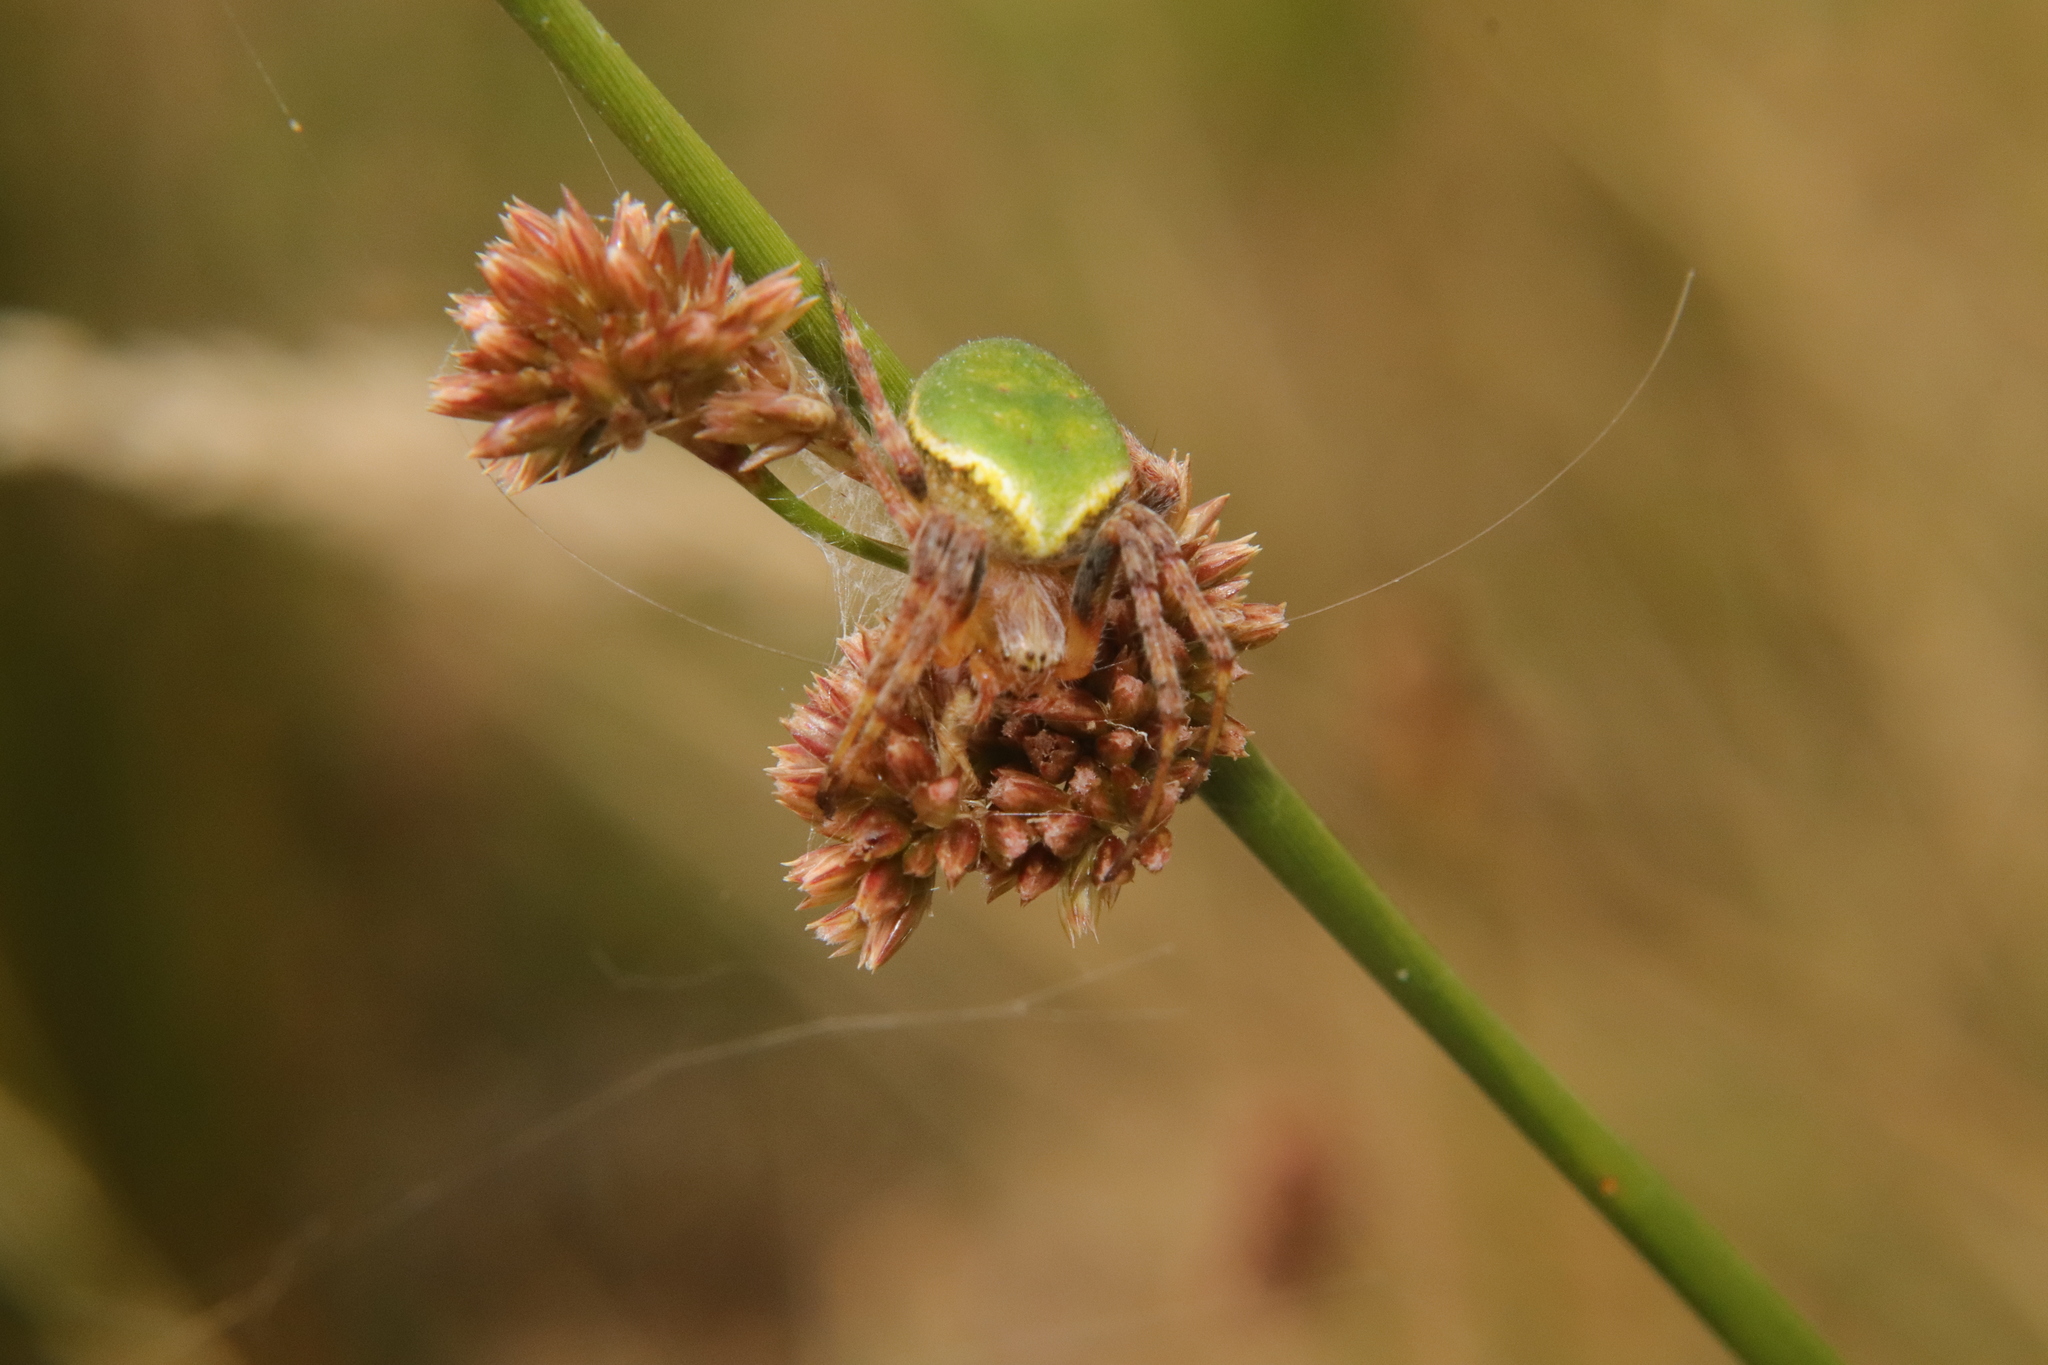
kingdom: Animalia
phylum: Arthropoda
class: Arachnida
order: Araneae
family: Araneidae
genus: Colaranea
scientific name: Colaranea viriditas
